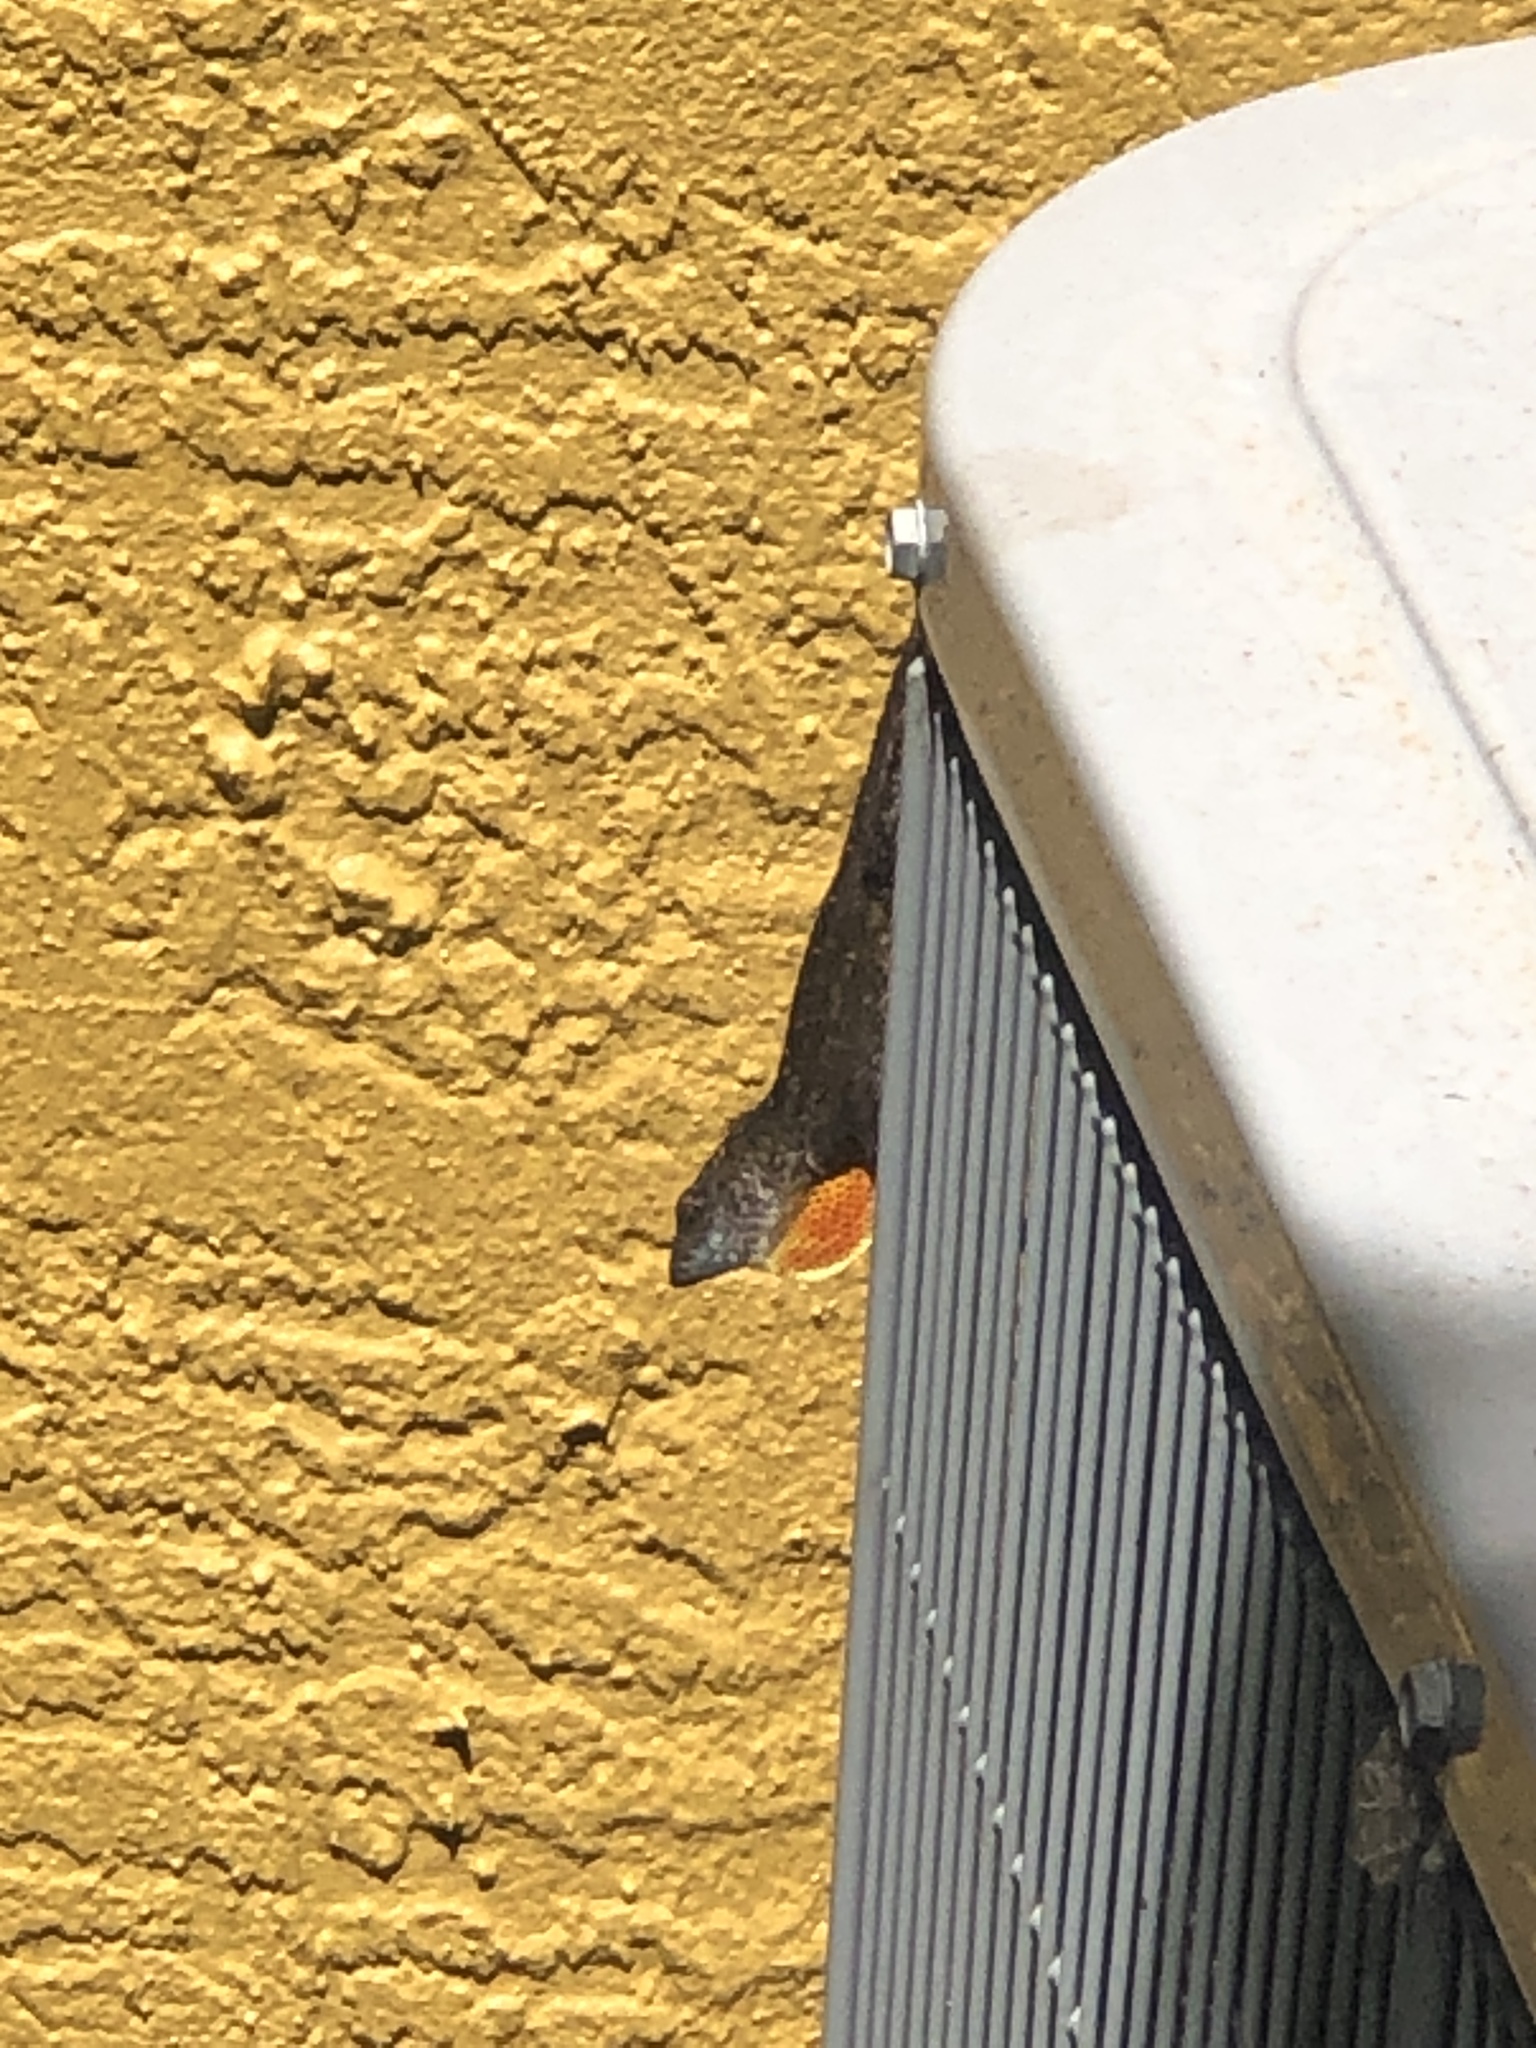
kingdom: Animalia
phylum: Chordata
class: Squamata
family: Dactyloidae
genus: Anolis
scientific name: Anolis sagrei
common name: Brown anole
